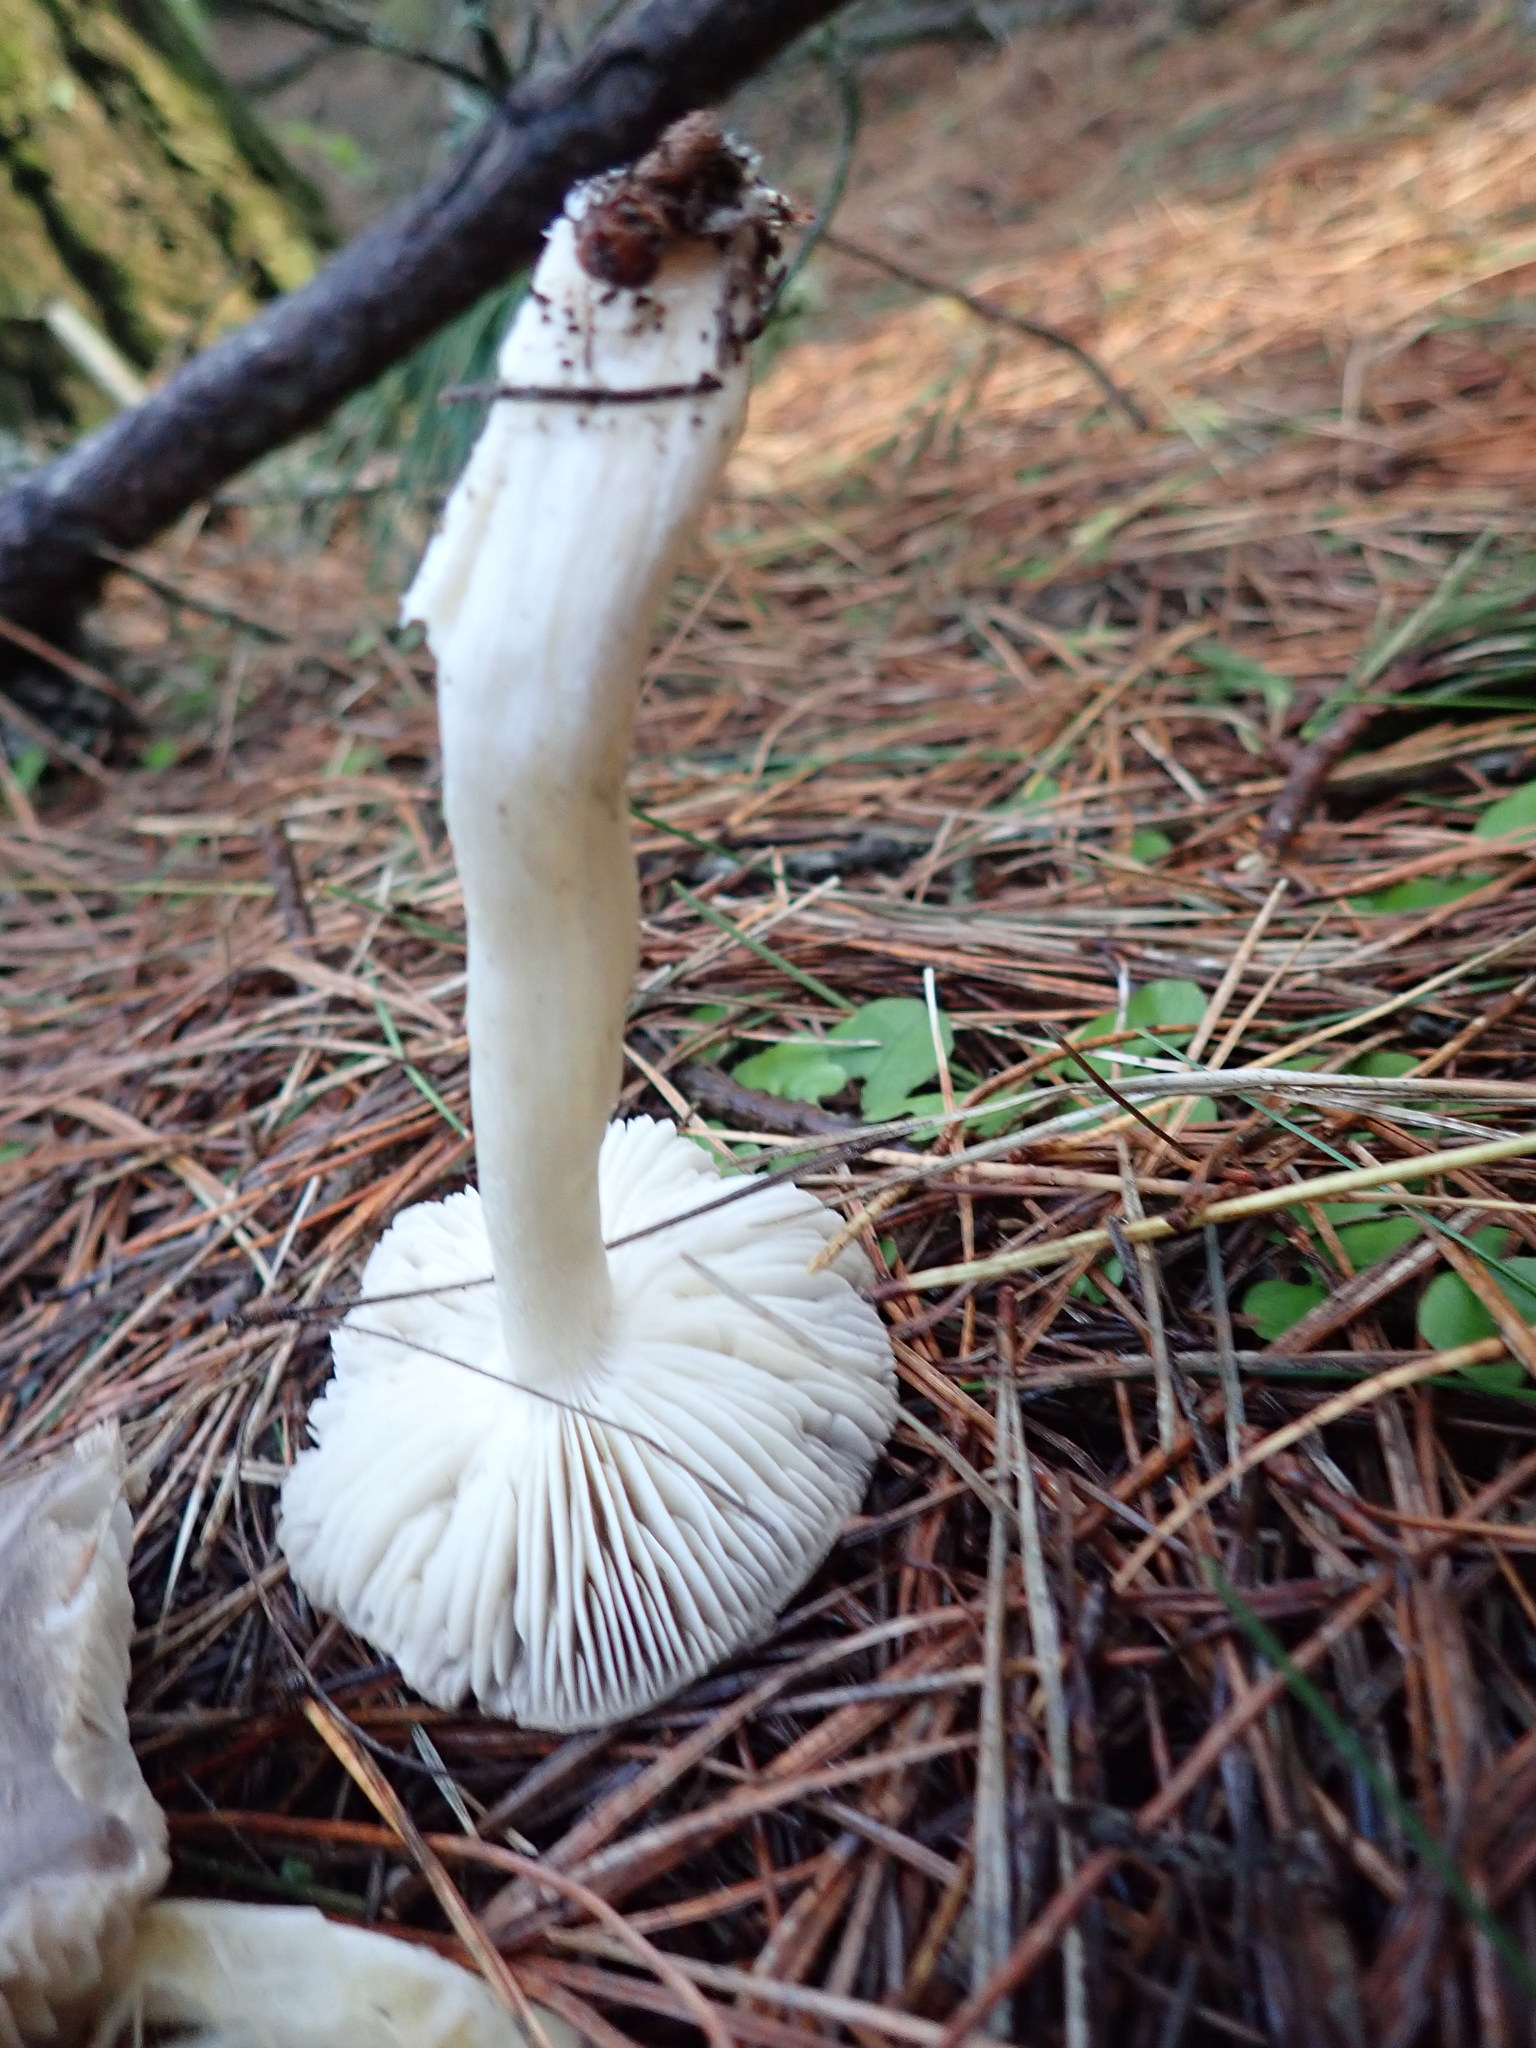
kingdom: Fungi
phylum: Basidiomycota
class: Agaricomycetes
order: Agaricales
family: Tricholomataceae
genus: Tricholoma
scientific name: Tricholoma terreum
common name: Grey knight
